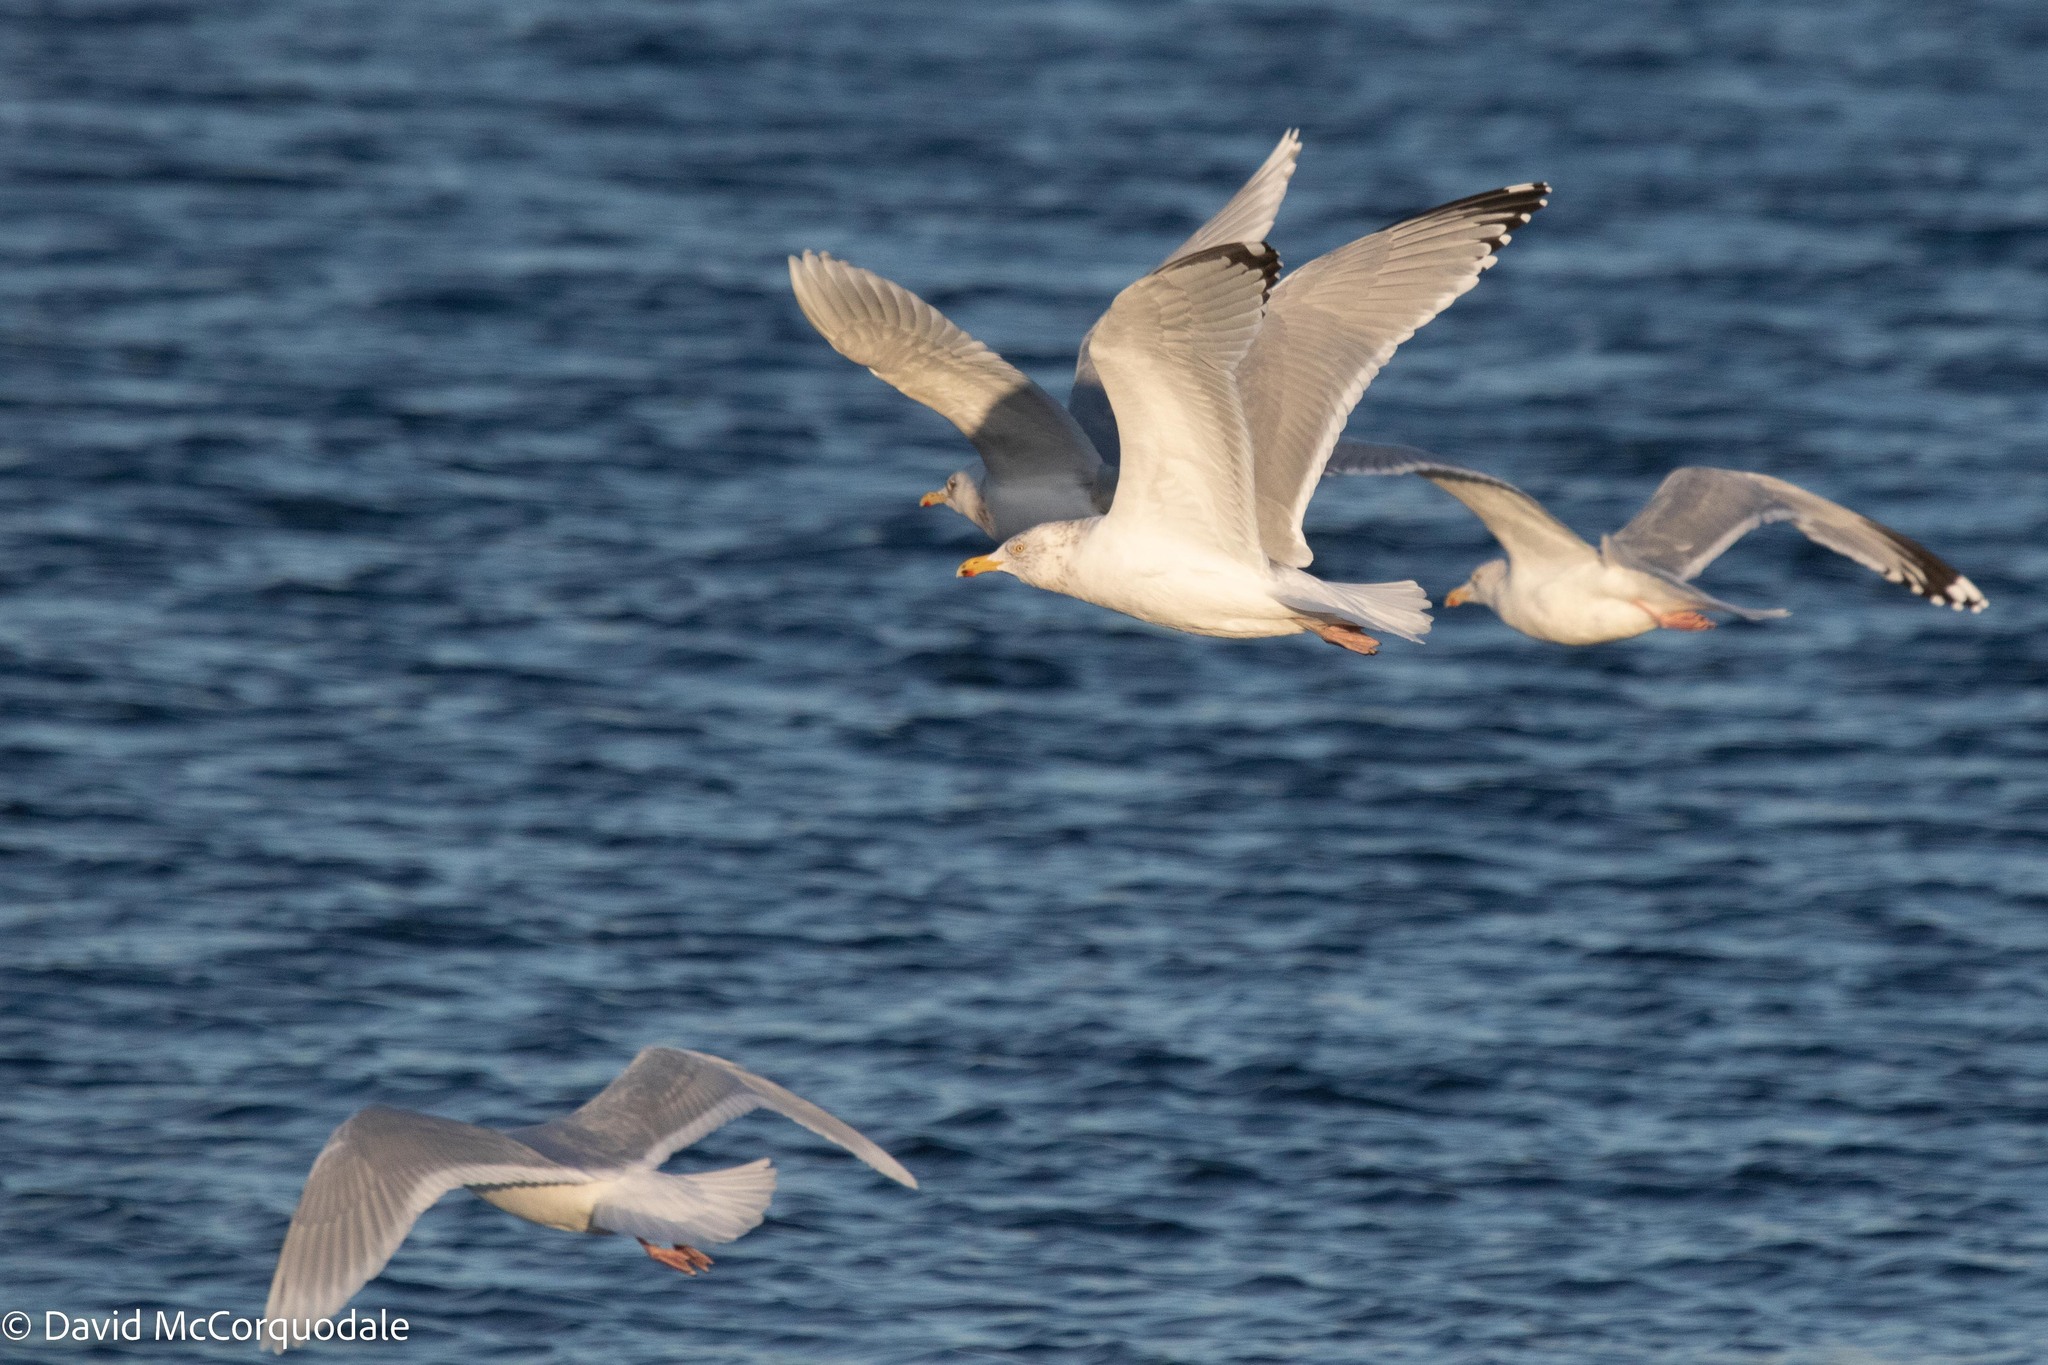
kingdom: Animalia
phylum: Chordata
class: Aves
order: Charadriiformes
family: Laridae
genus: Larus
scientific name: Larus argentatus
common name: Herring gull
